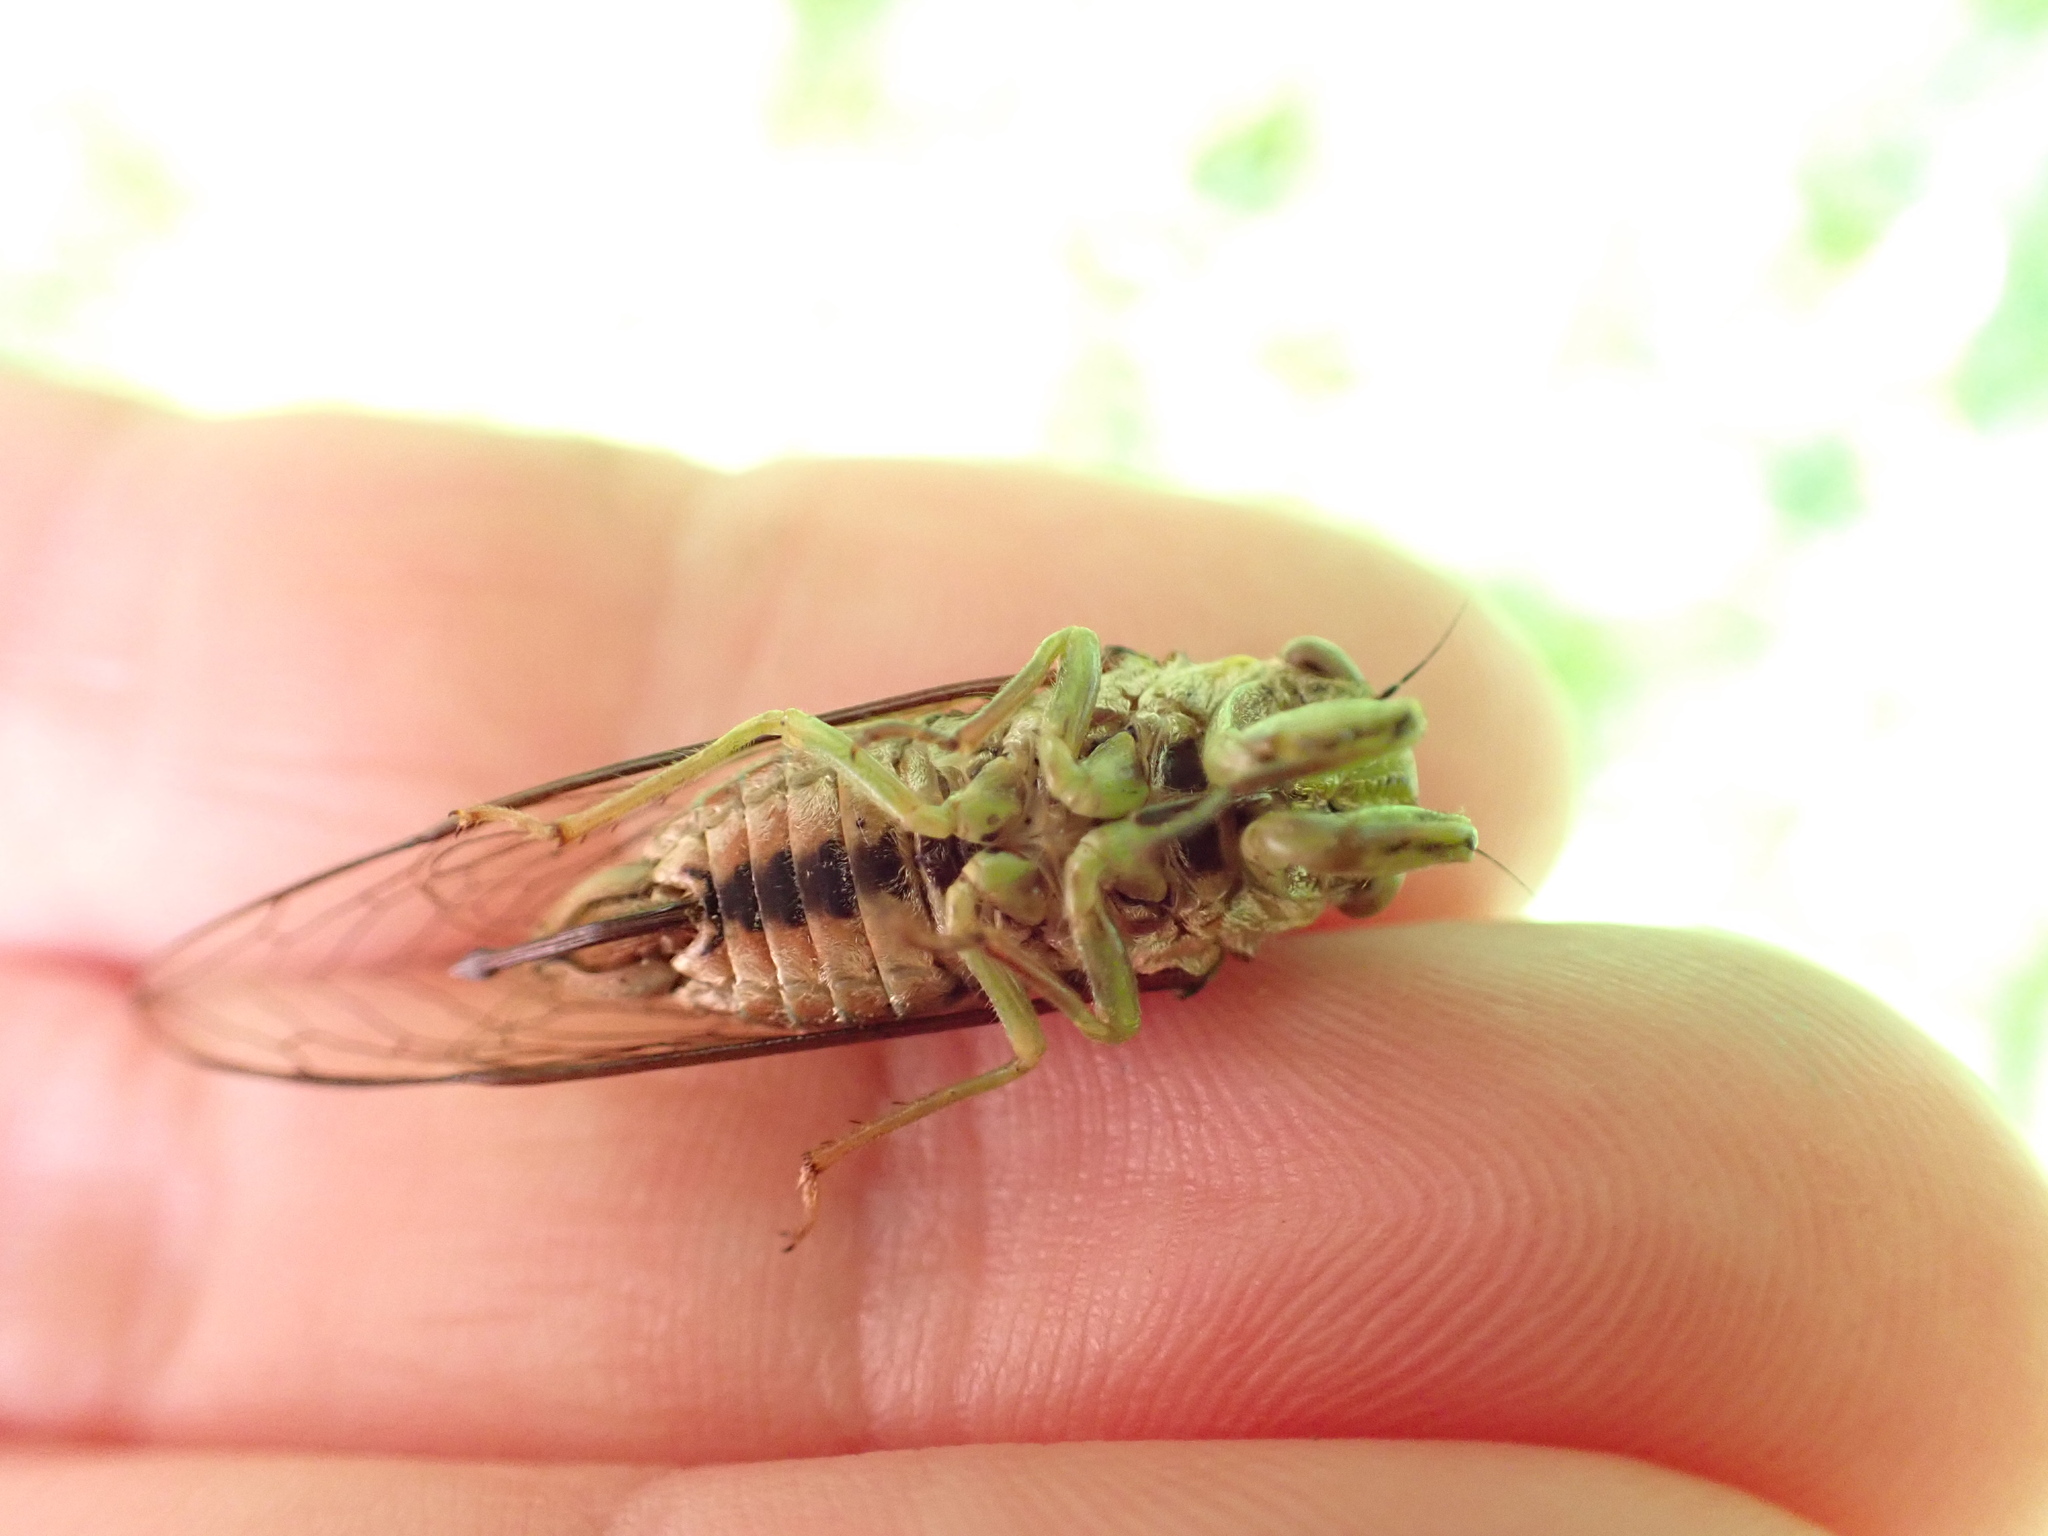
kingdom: Animalia
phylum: Arthropoda
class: Insecta
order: Hemiptera
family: Cicadidae
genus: Kikihia
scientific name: Kikihia scutellaris
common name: Lesser bronze cicada
